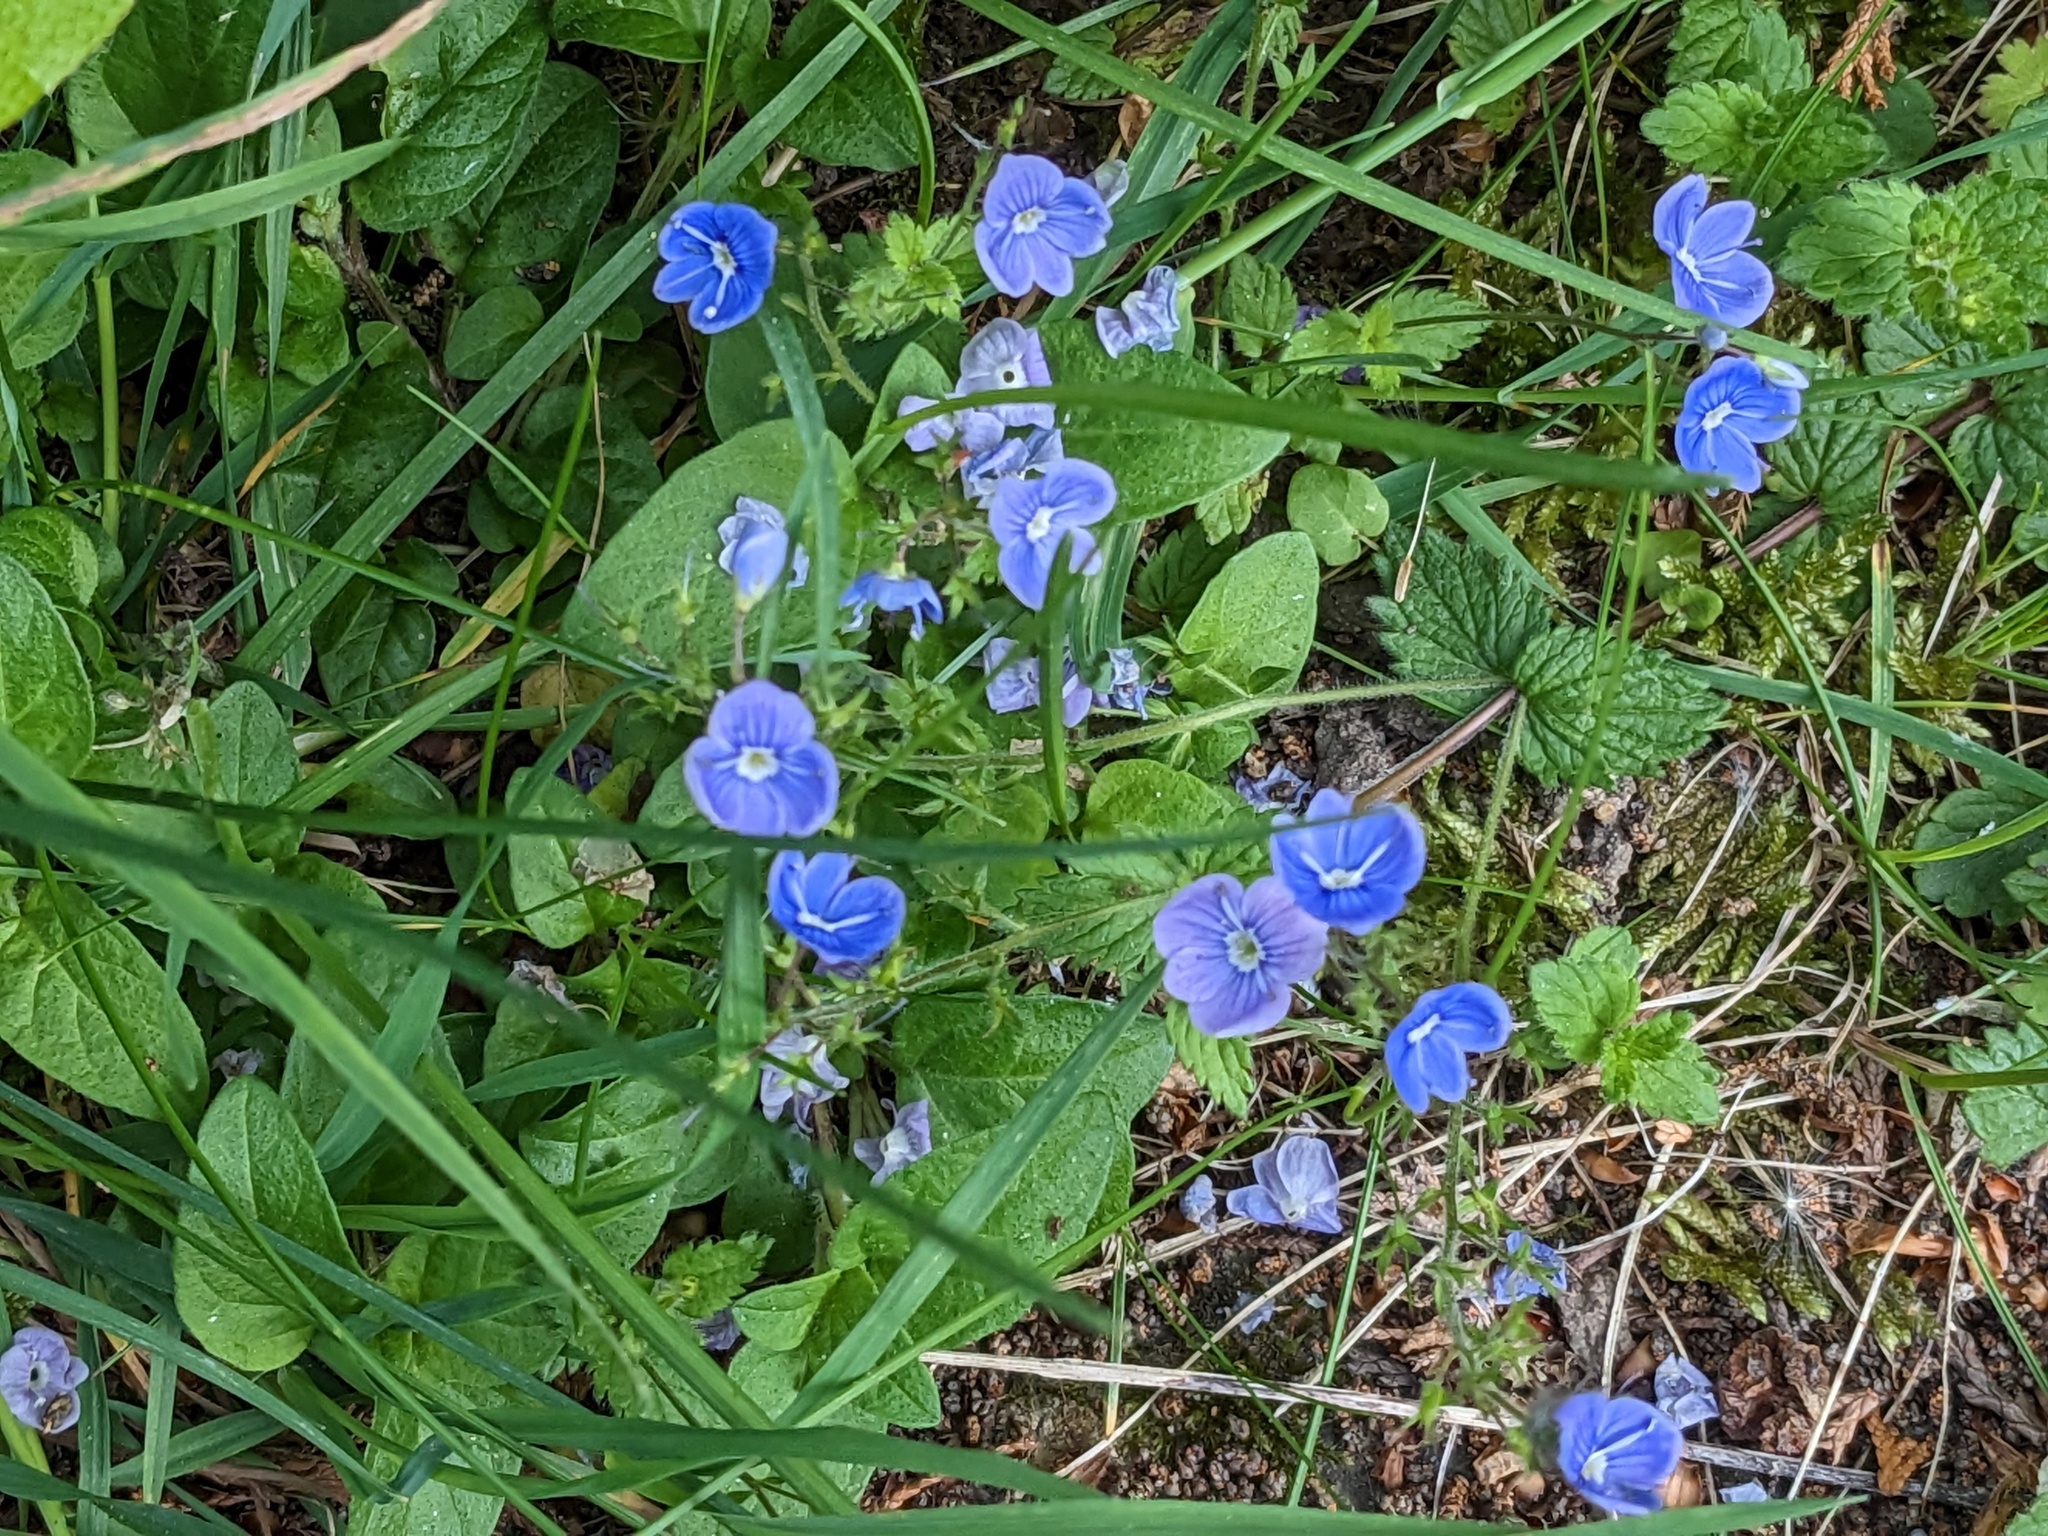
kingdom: Plantae
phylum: Tracheophyta
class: Magnoliopsida
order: Lamiales
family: Plantaginaceae
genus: Veronica
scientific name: Veronica chamaedrys
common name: Germander speedwell
